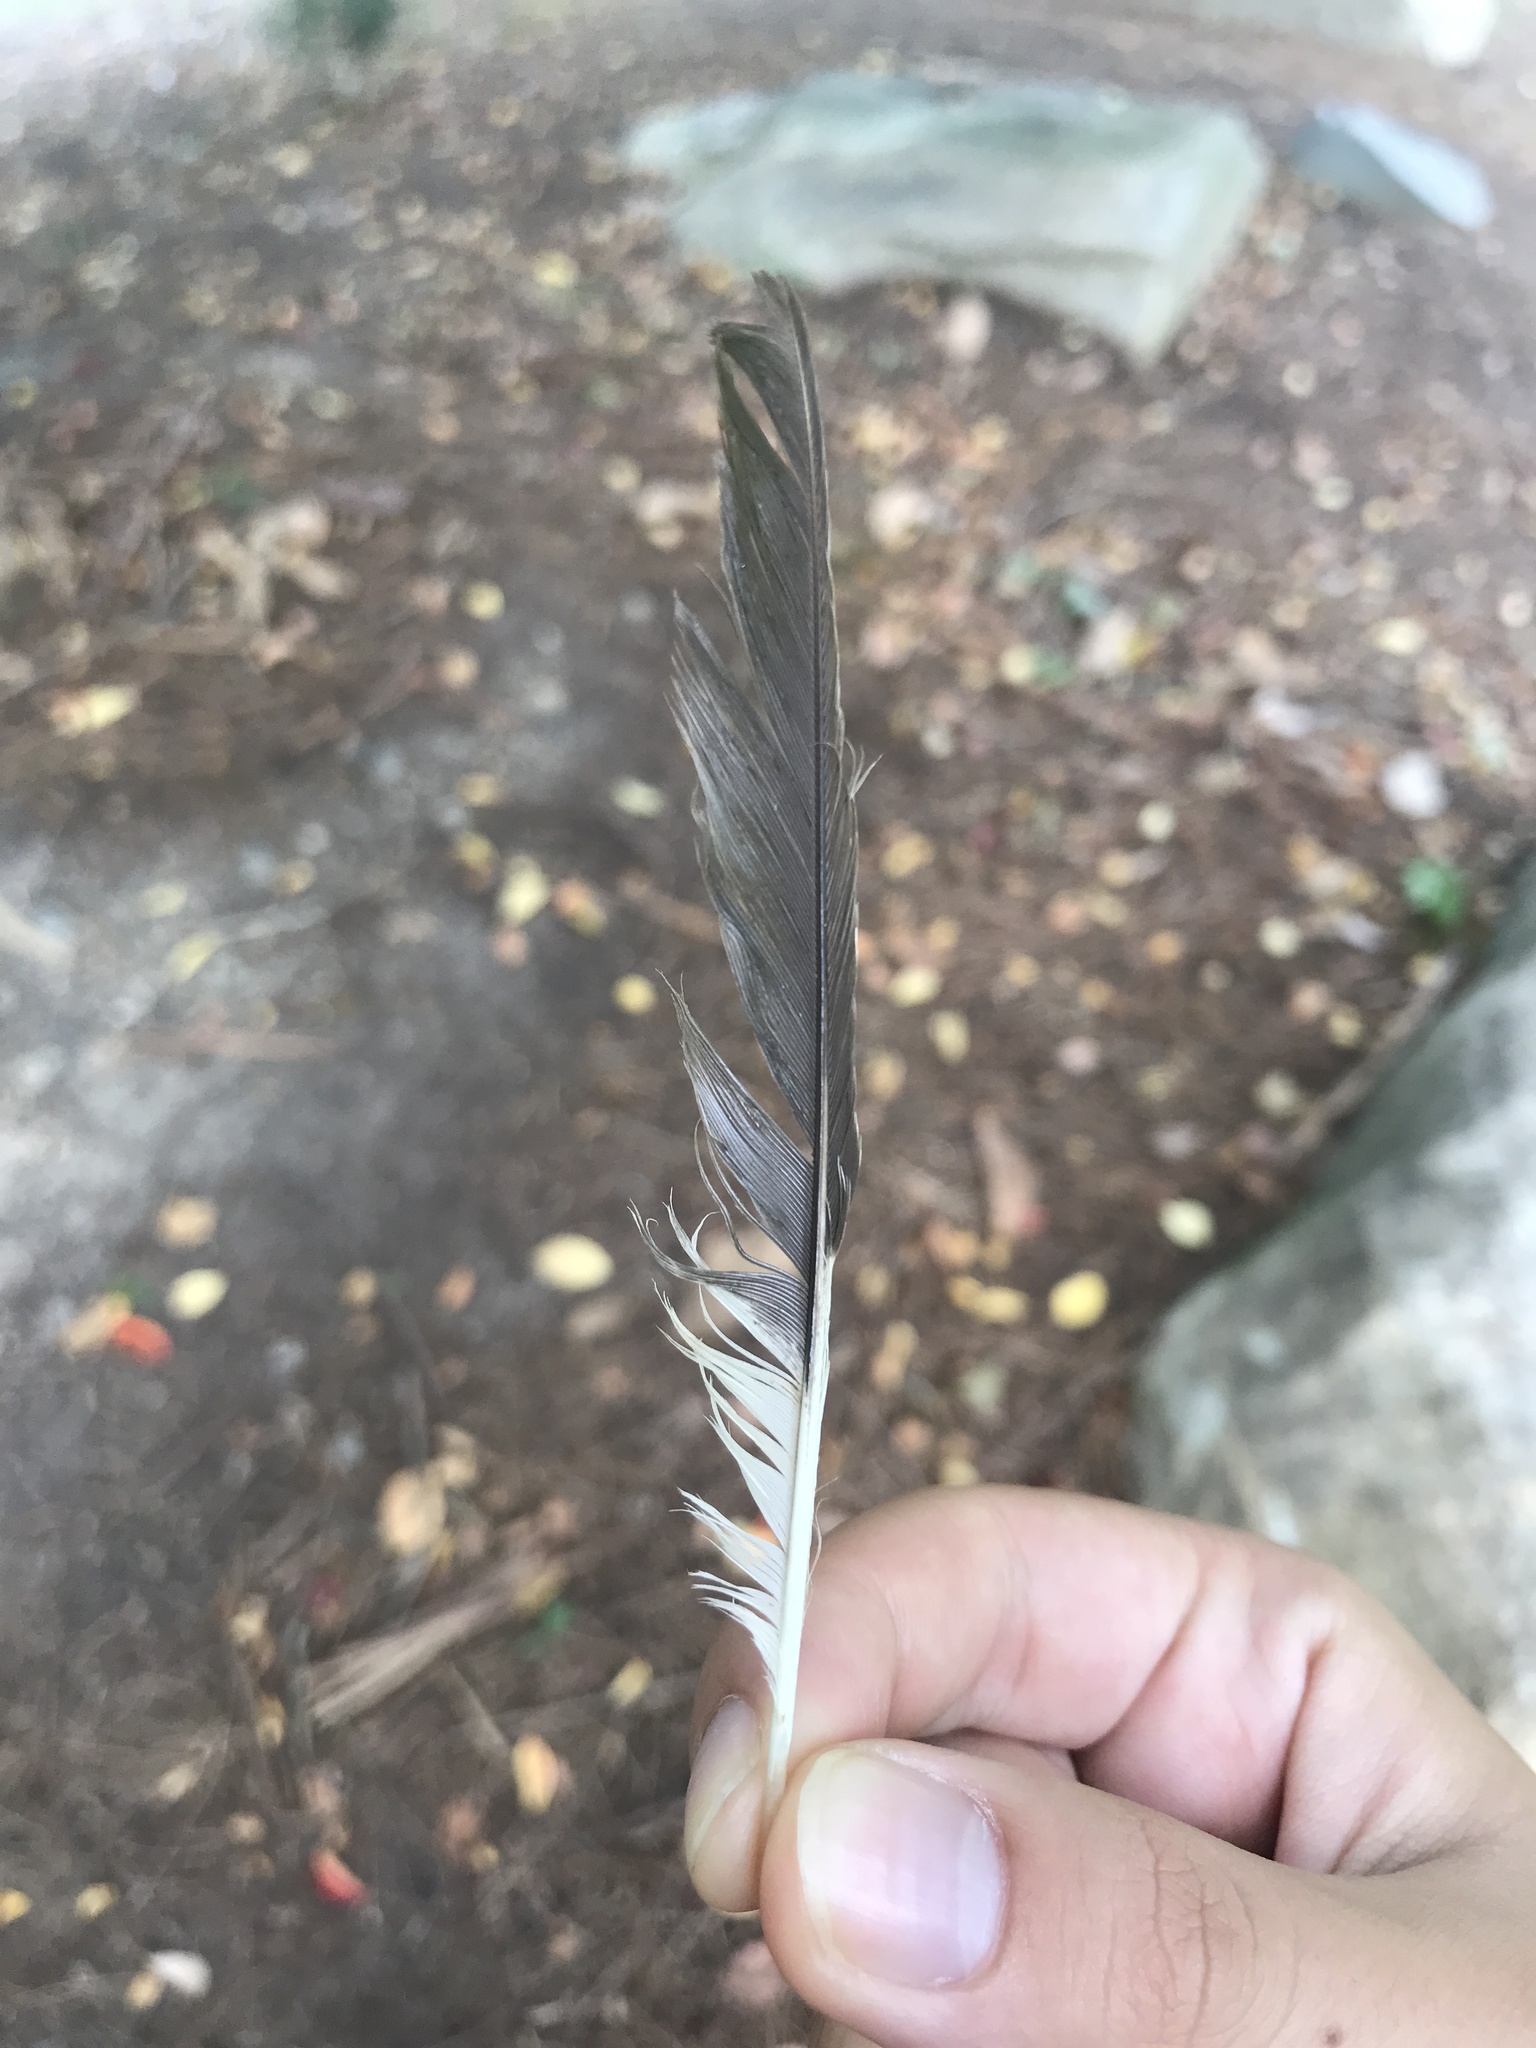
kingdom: Animalia
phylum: Chordata
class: Aves
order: Passeriformes
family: Mimidae
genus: Mimus
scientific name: Mimus polyglottos
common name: Northern mockingbird
